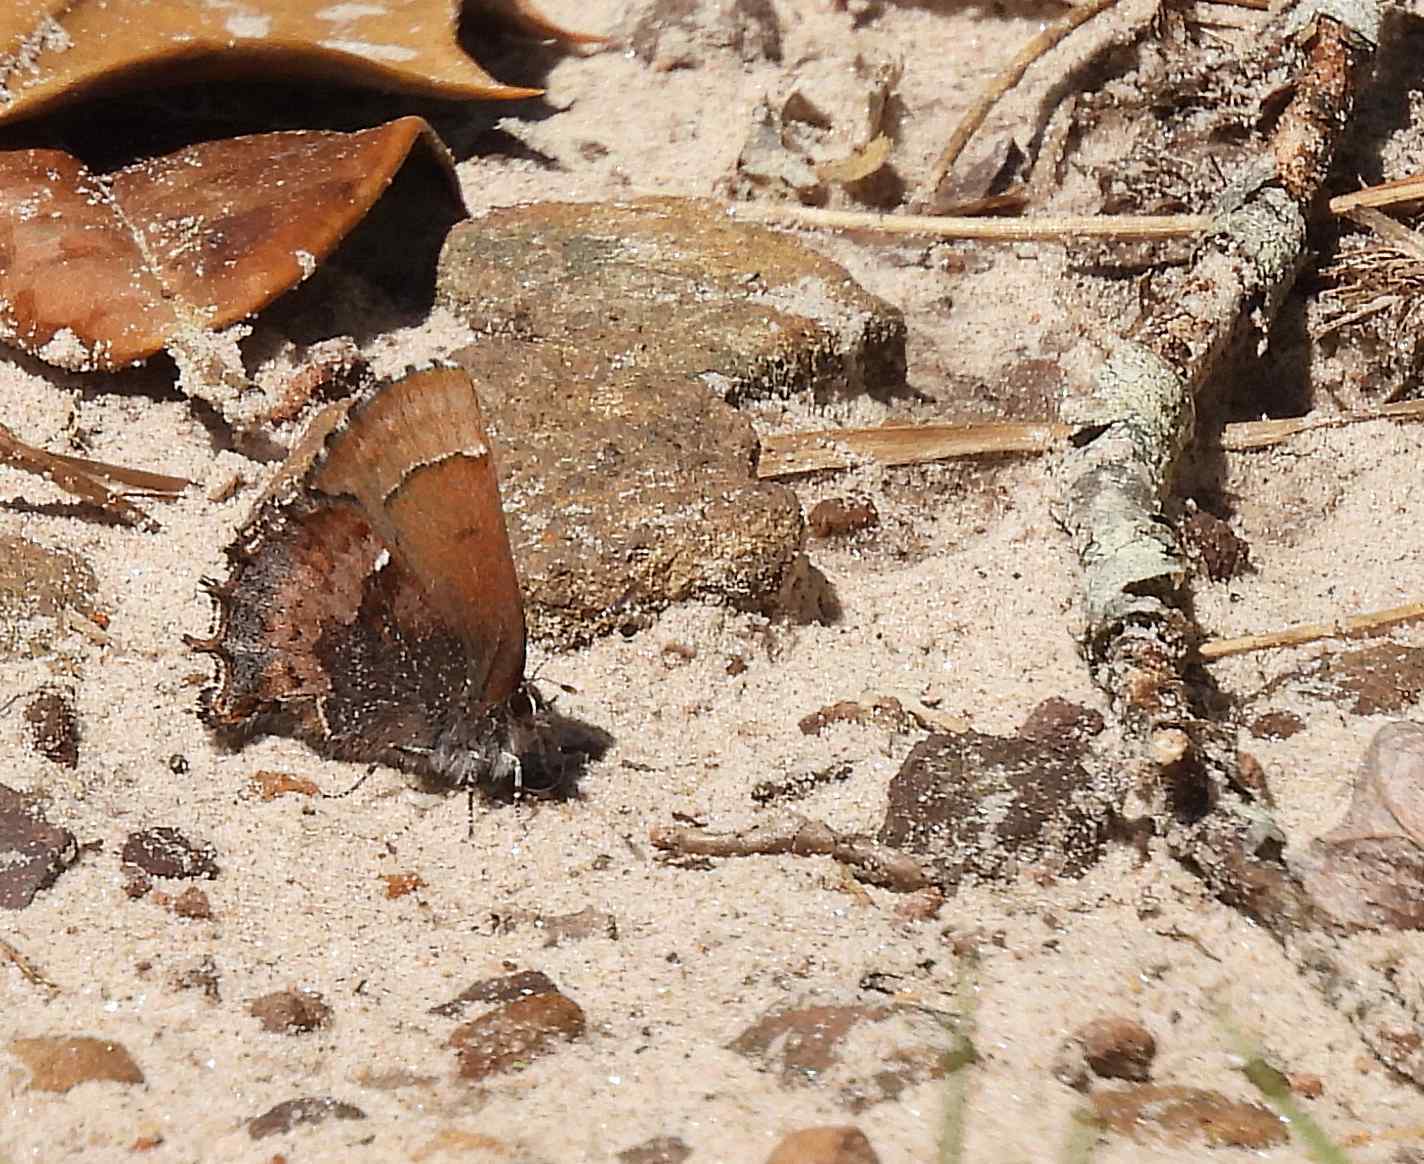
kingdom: Animalia
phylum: Arthropoda
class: Insecta
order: Lepidoptera
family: Lycaenidae
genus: Incisalia
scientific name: Incisalia henrici
